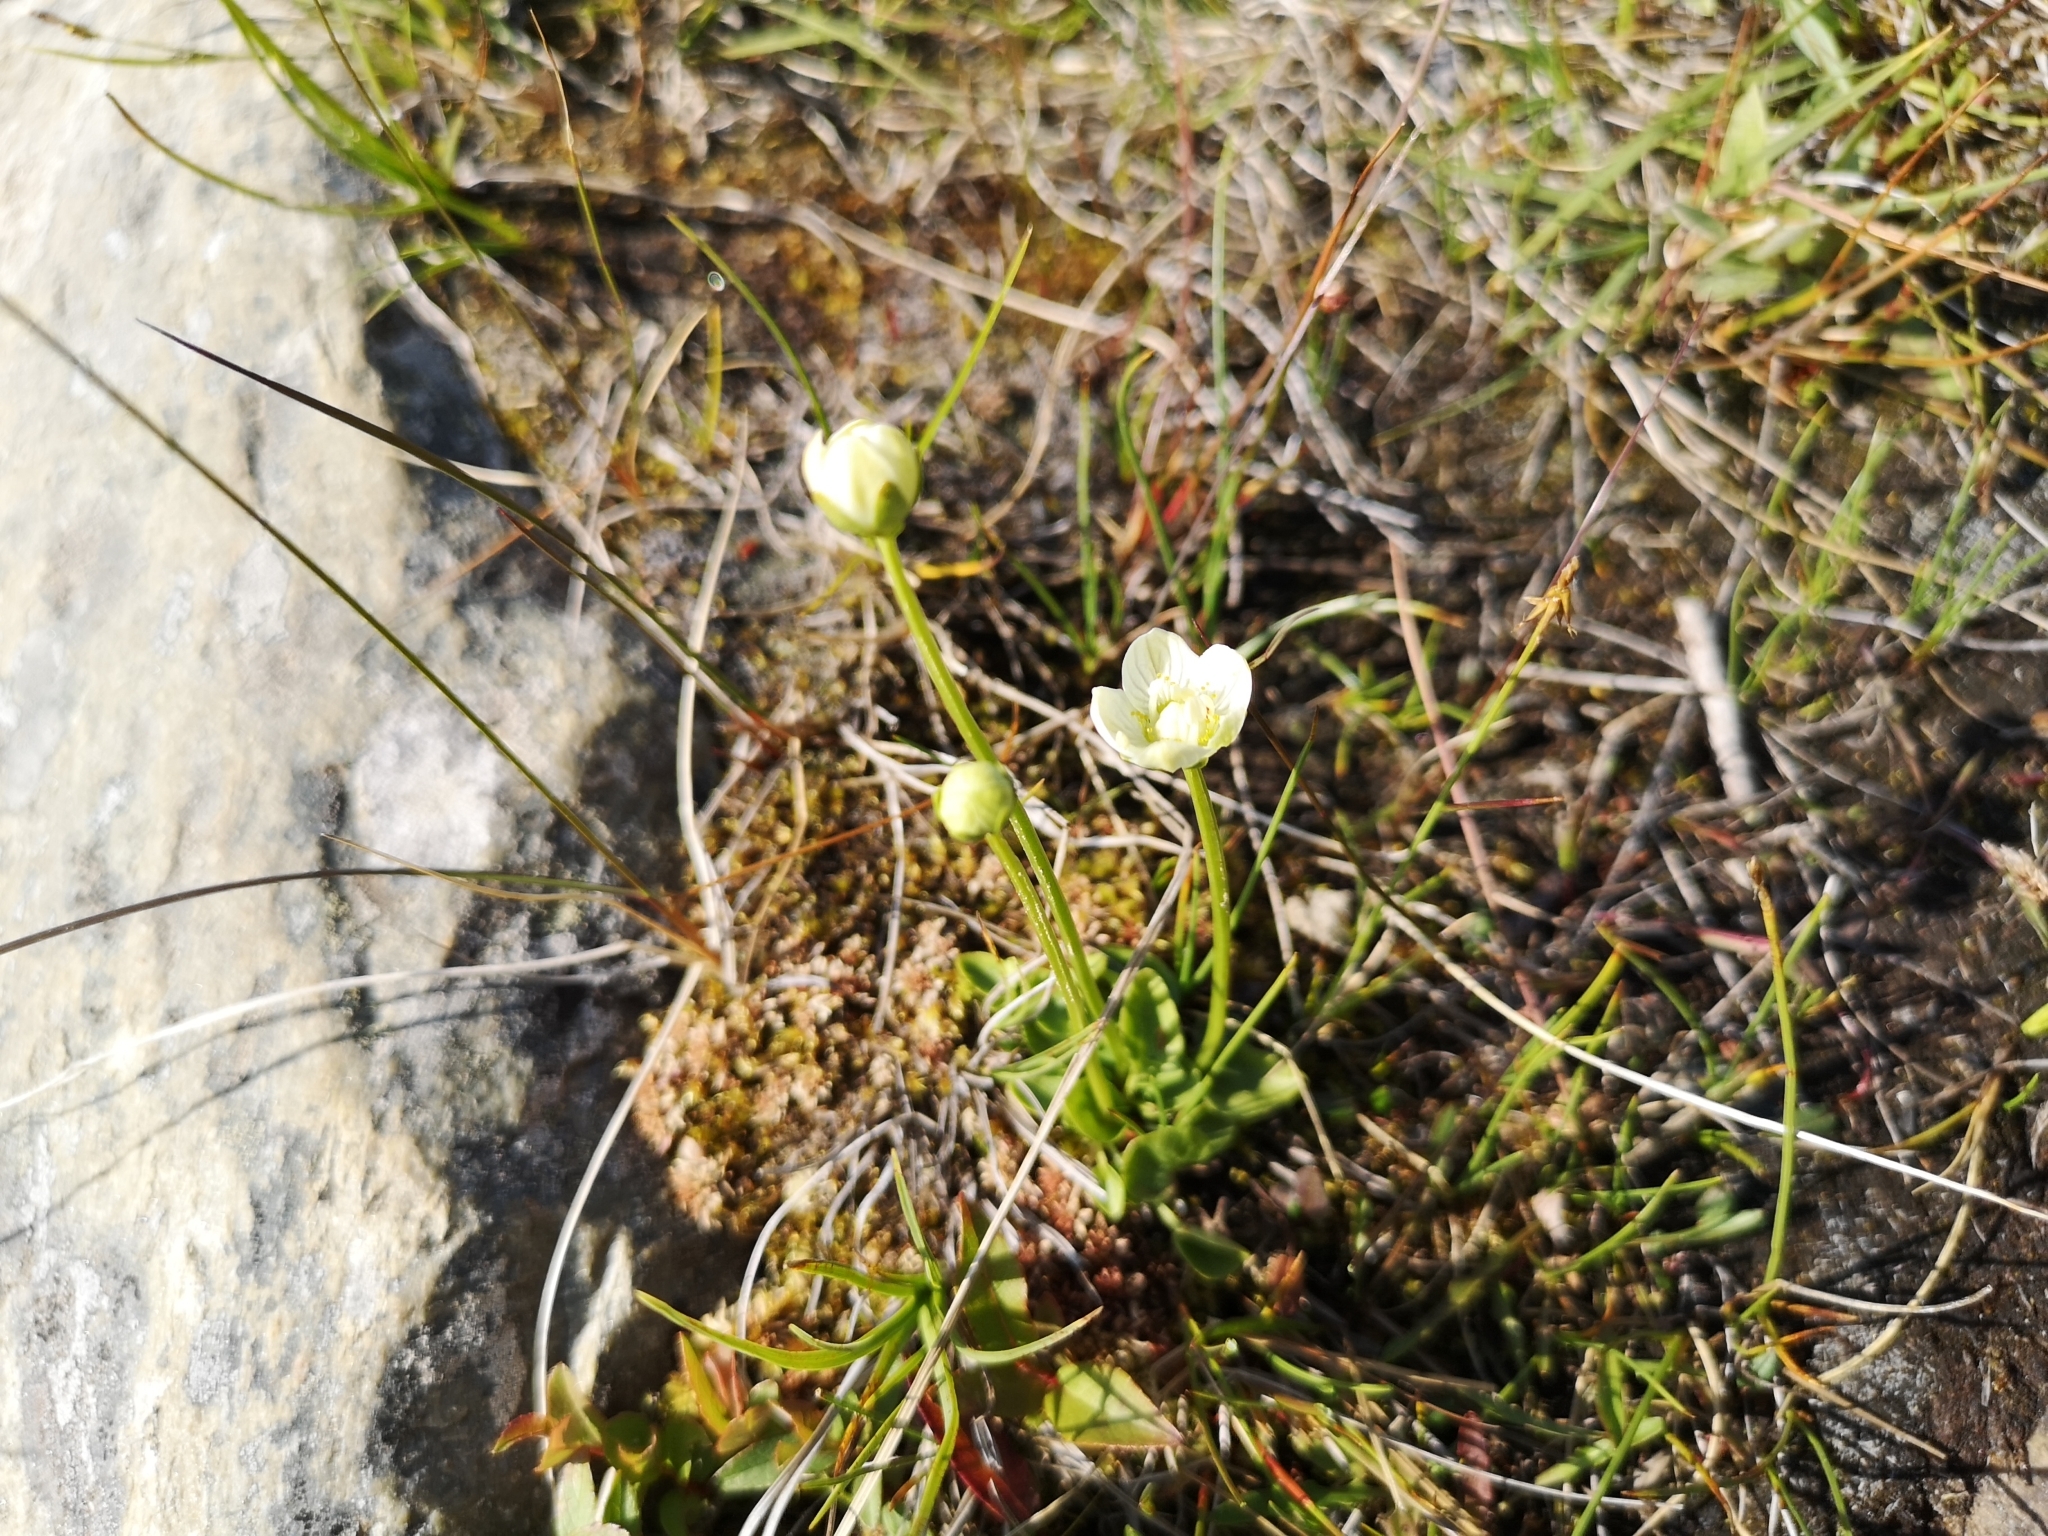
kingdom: Plantae
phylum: Tracheophyta
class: Magnoliopsida
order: Celastrales
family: Parnassiaceae
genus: Parnassia
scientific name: Parnassia palustris
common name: Grass-of-parnassus
